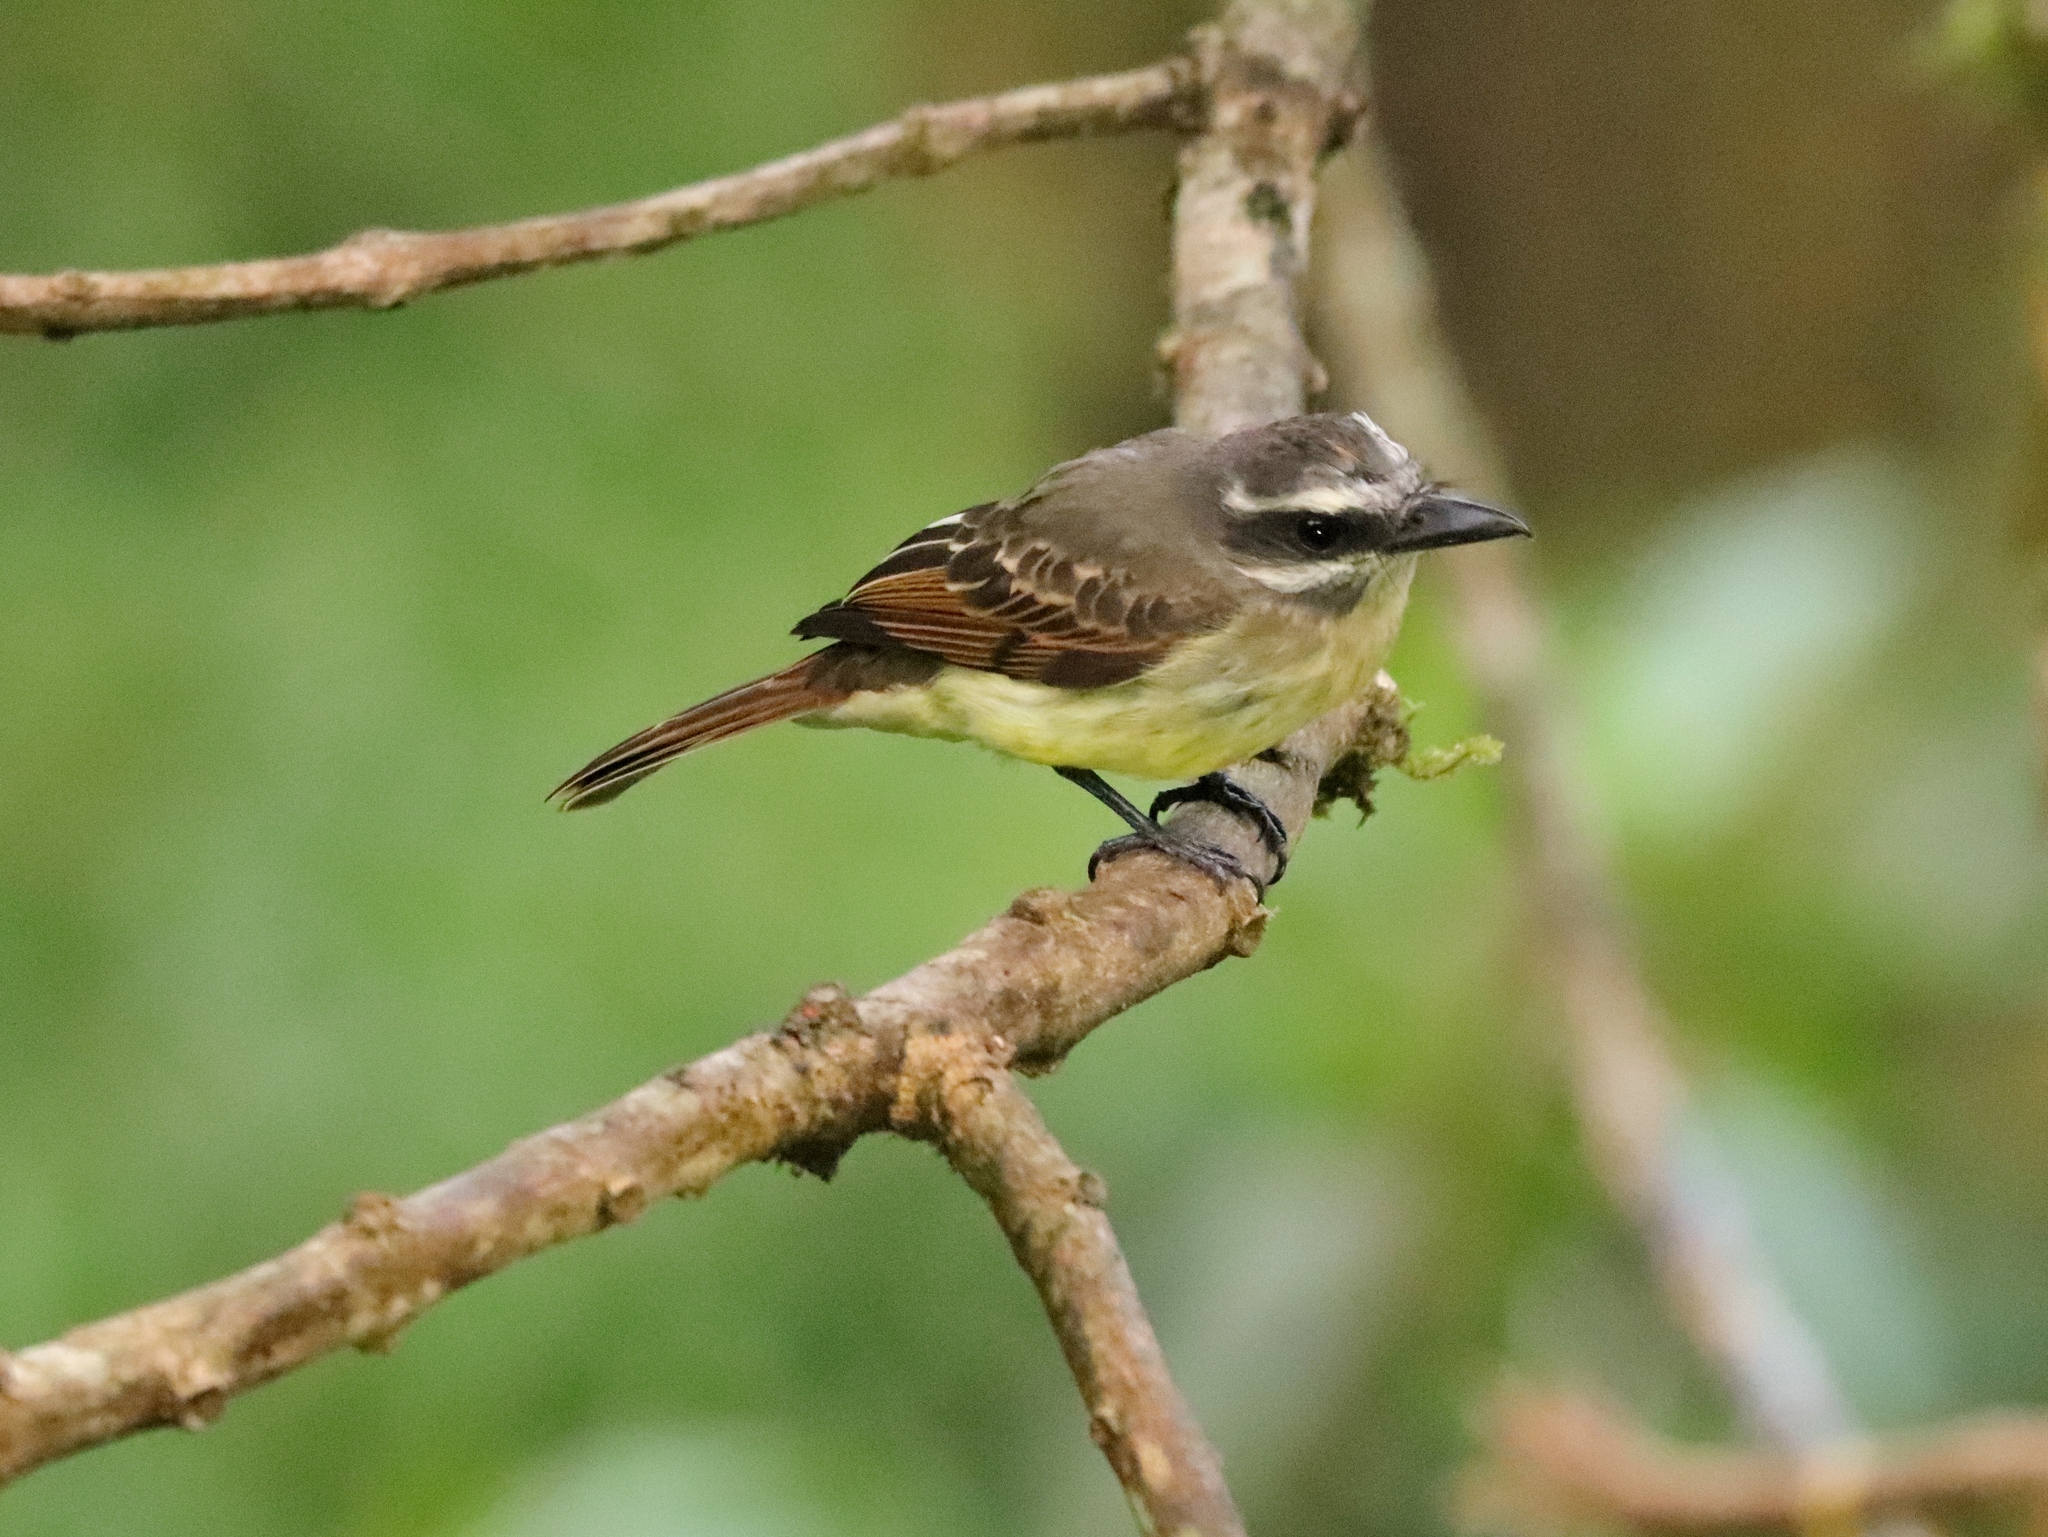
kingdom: Animalia
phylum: Chordata
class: Aves
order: Passeriformes
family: Tyrannidae
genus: Myiodynastes
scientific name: Myiodynastes hemichrysus
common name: Golden-bellied flycatcher
